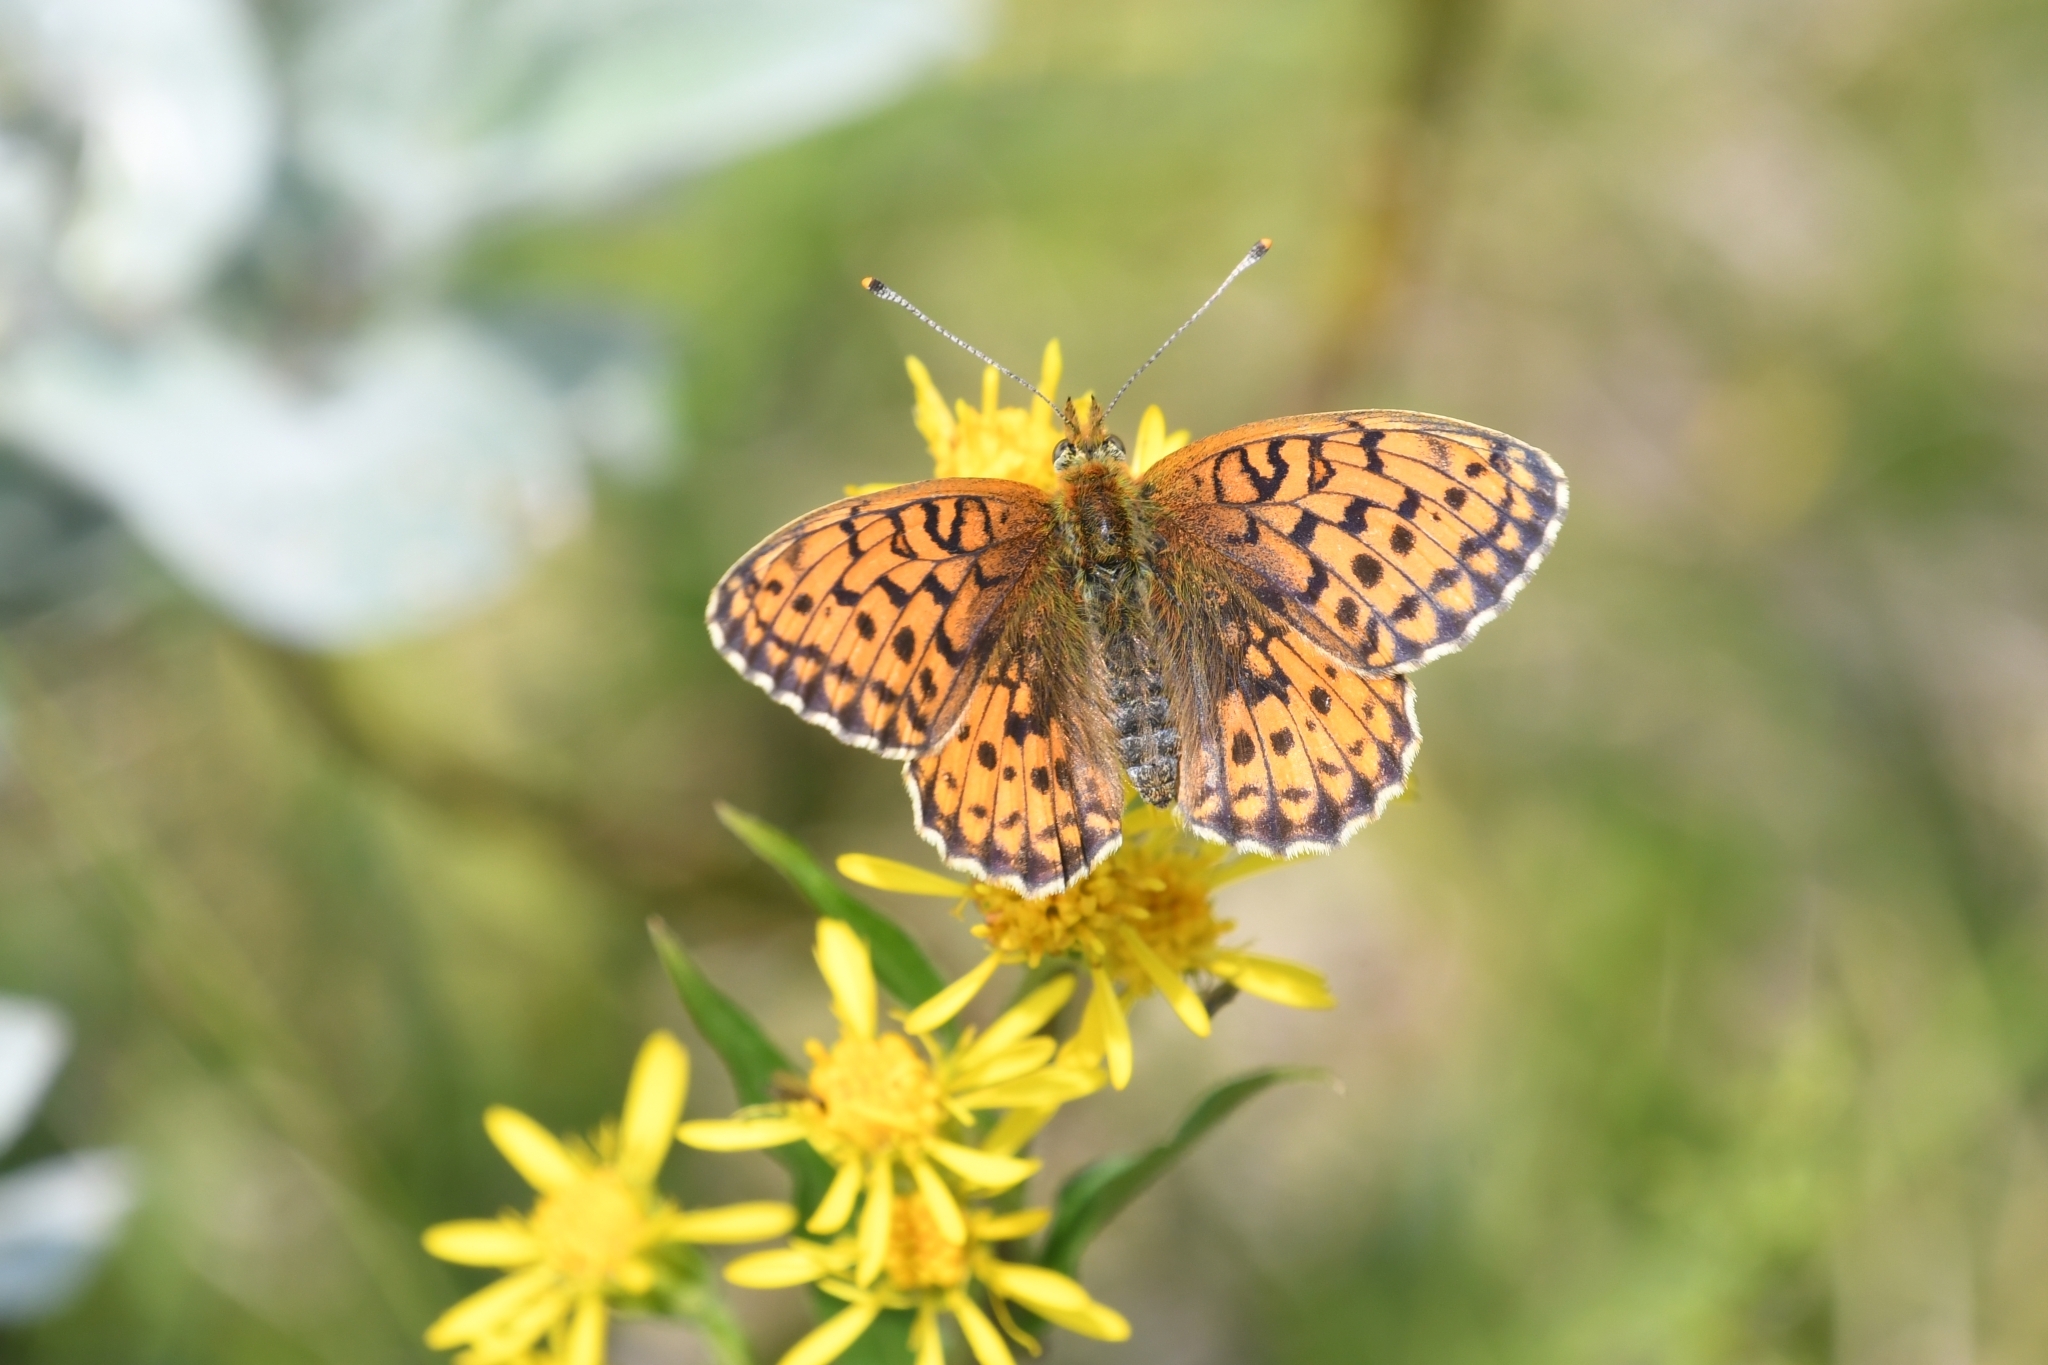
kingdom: Animalia
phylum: Arthropoda
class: Insecta
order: Lepidoptera
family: Nymphalidae
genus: Brenthis
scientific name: Brenthis ino
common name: Lesser marbled fritillary
